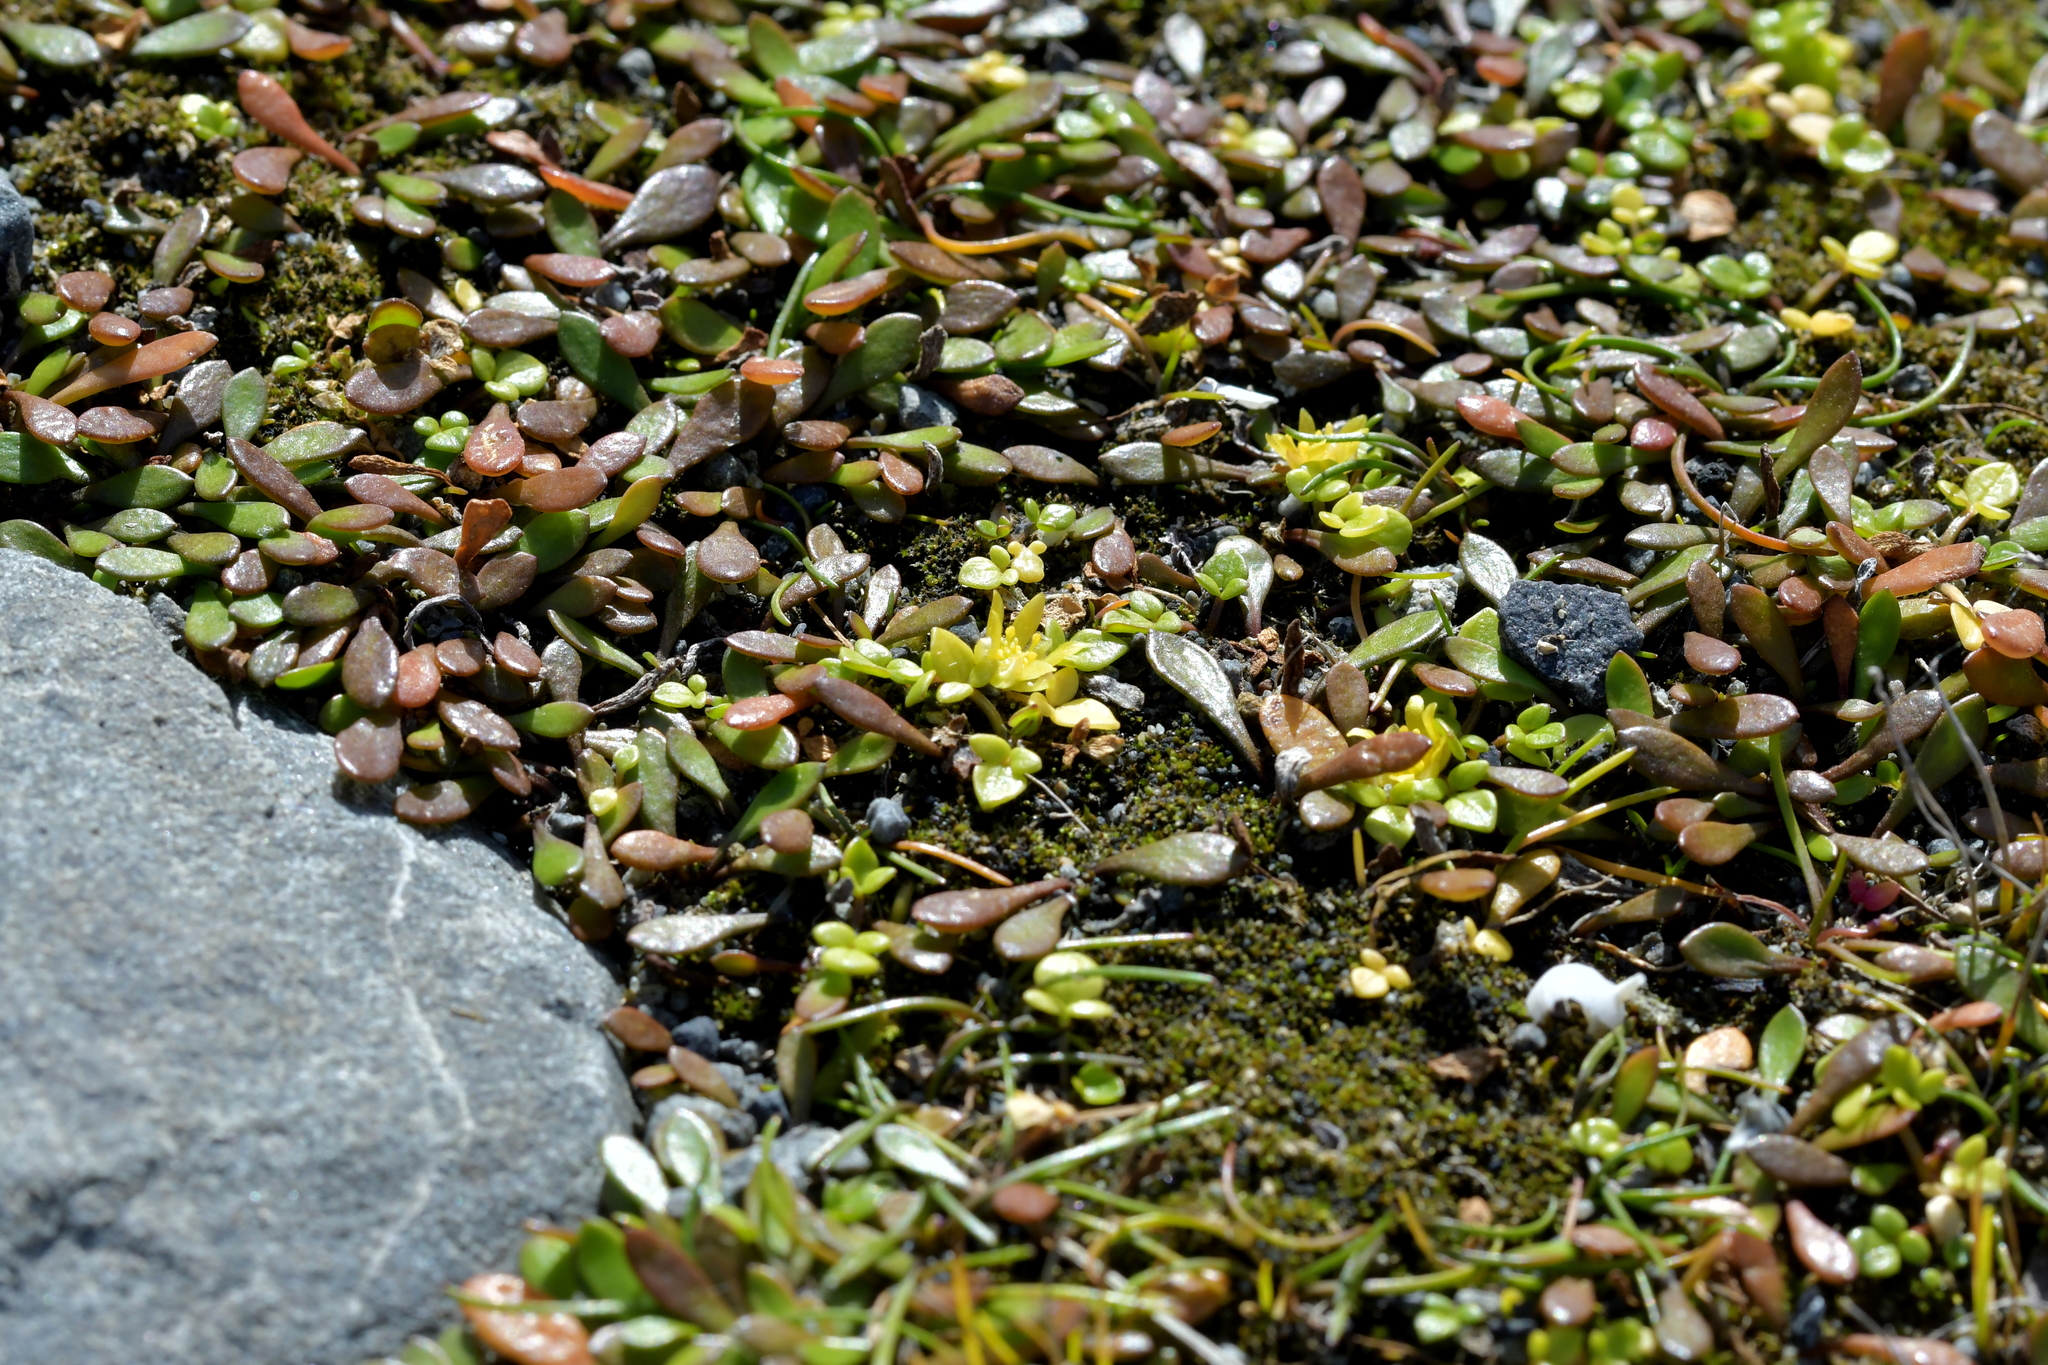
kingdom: Plantae
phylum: Tracheophyta
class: Magnoliopsida
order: Ranunculales
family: Ranunculaceae
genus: Ranunculus
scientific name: Ranunculus acaulis
